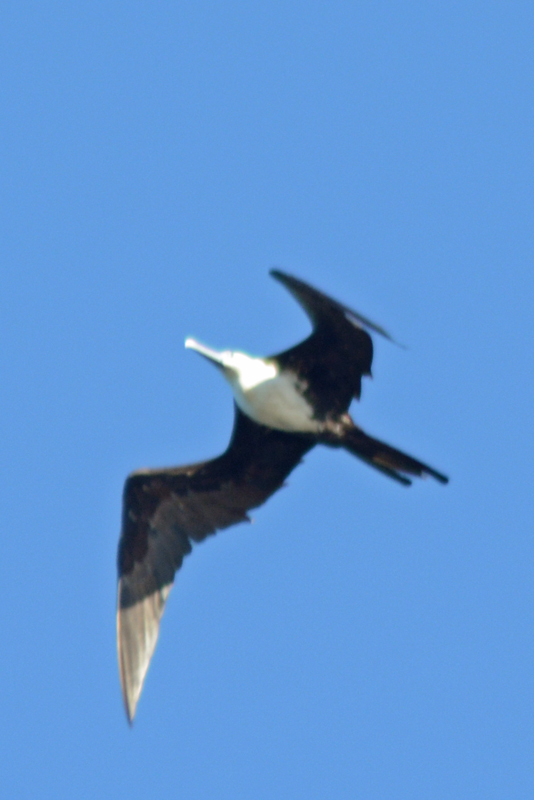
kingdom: Animalia
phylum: Chordata
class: Aves
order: Suliformes
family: Fregatidae
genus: Fregata
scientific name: Fregata magnificens
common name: Magnificent frigatebird
